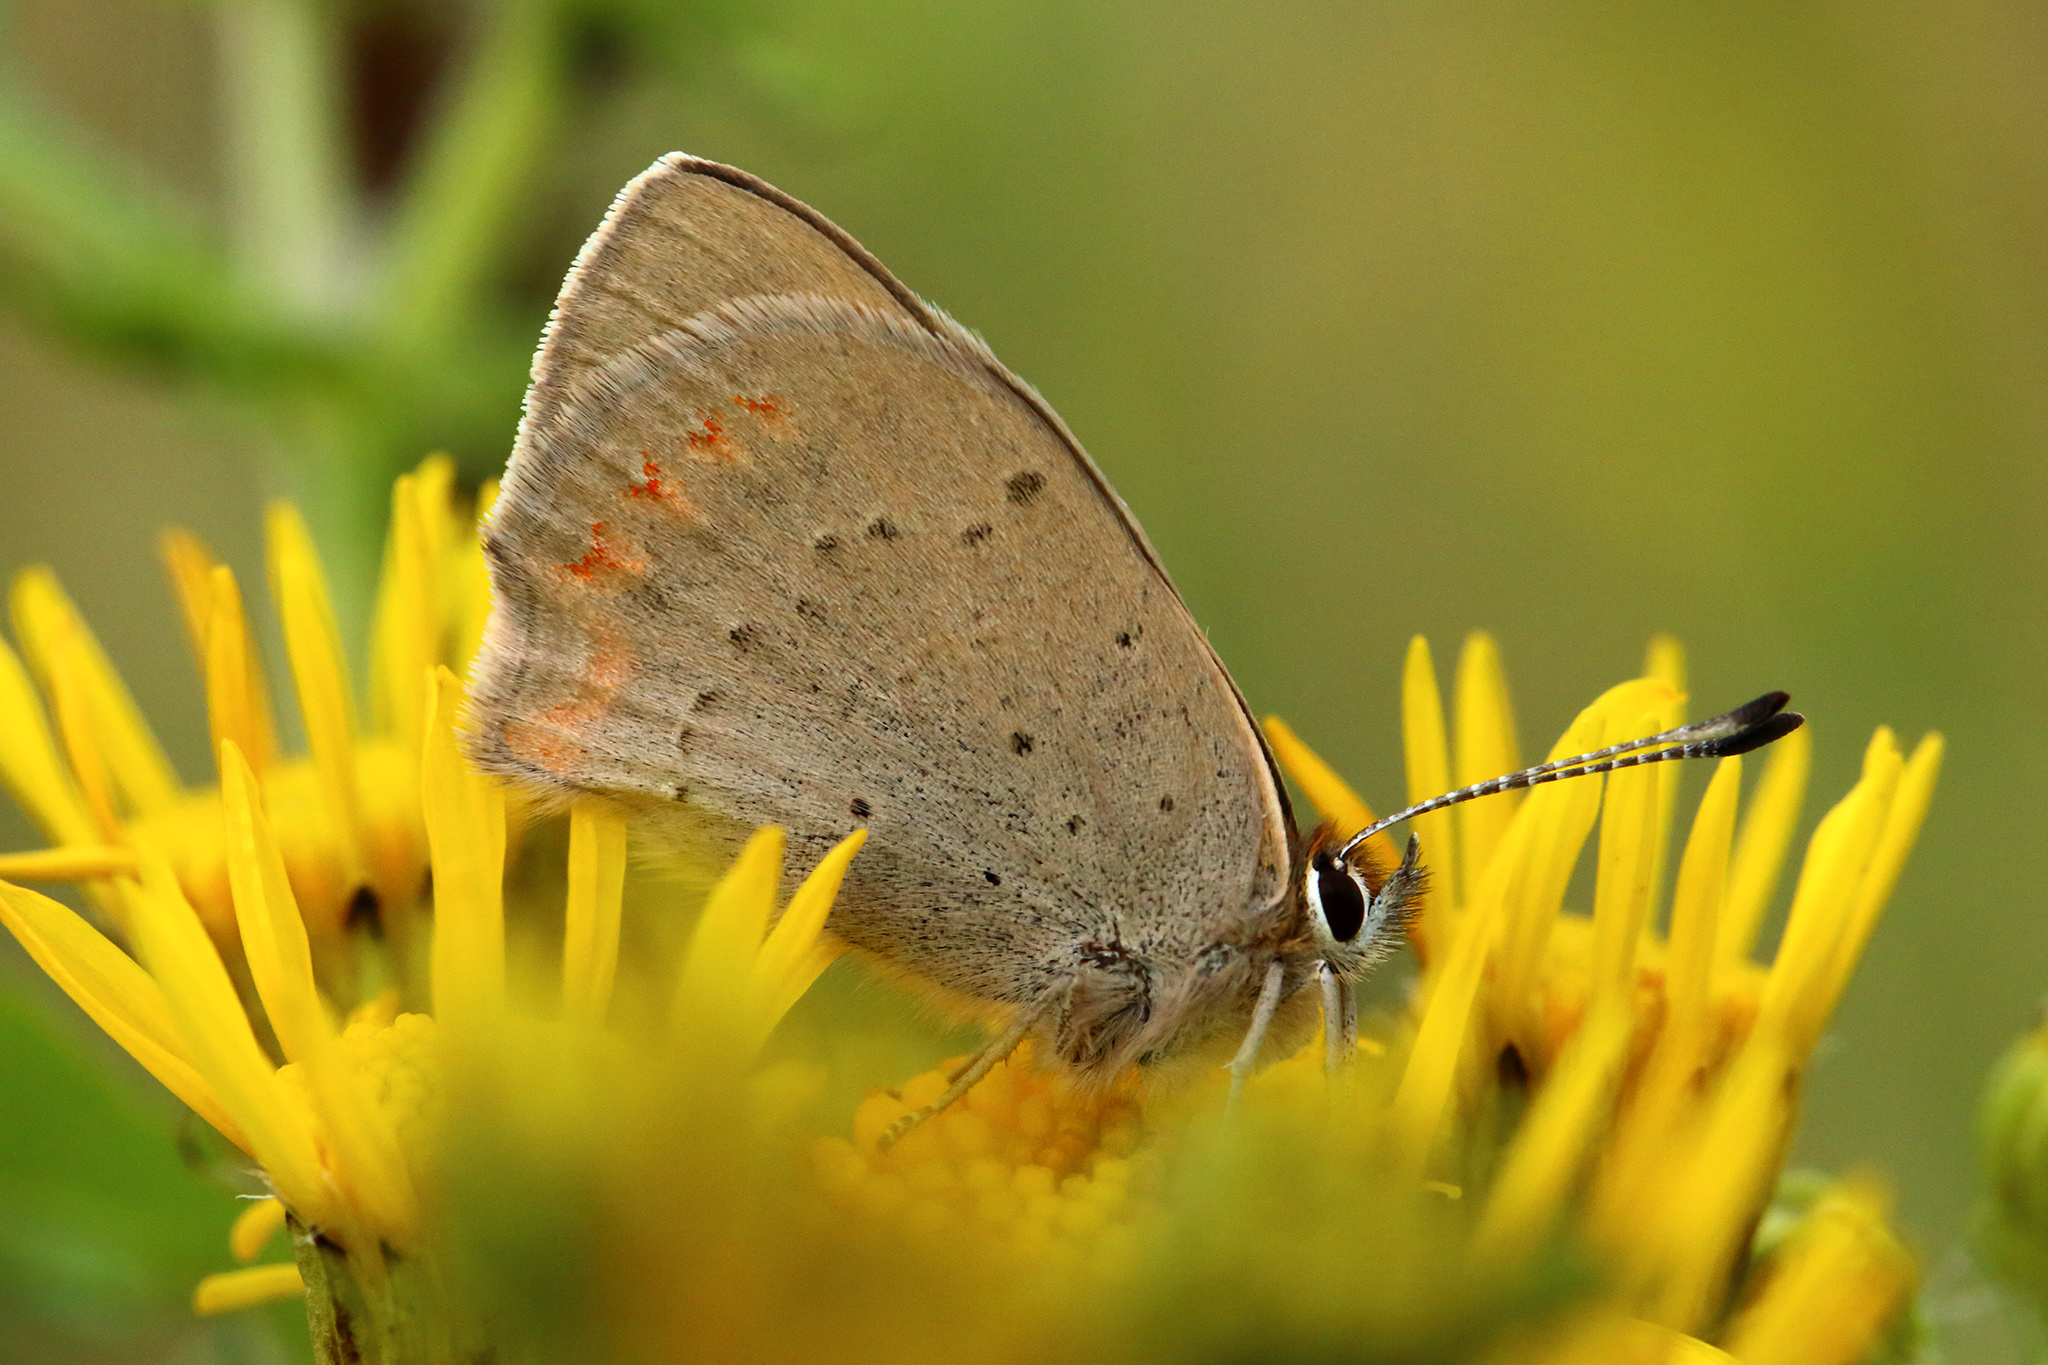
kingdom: Animalia
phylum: Arthropoda
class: Insecta
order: Lepidoptera
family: Lycaenidae
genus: Lycaena
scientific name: Lycaena phlaeas
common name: Small copper
